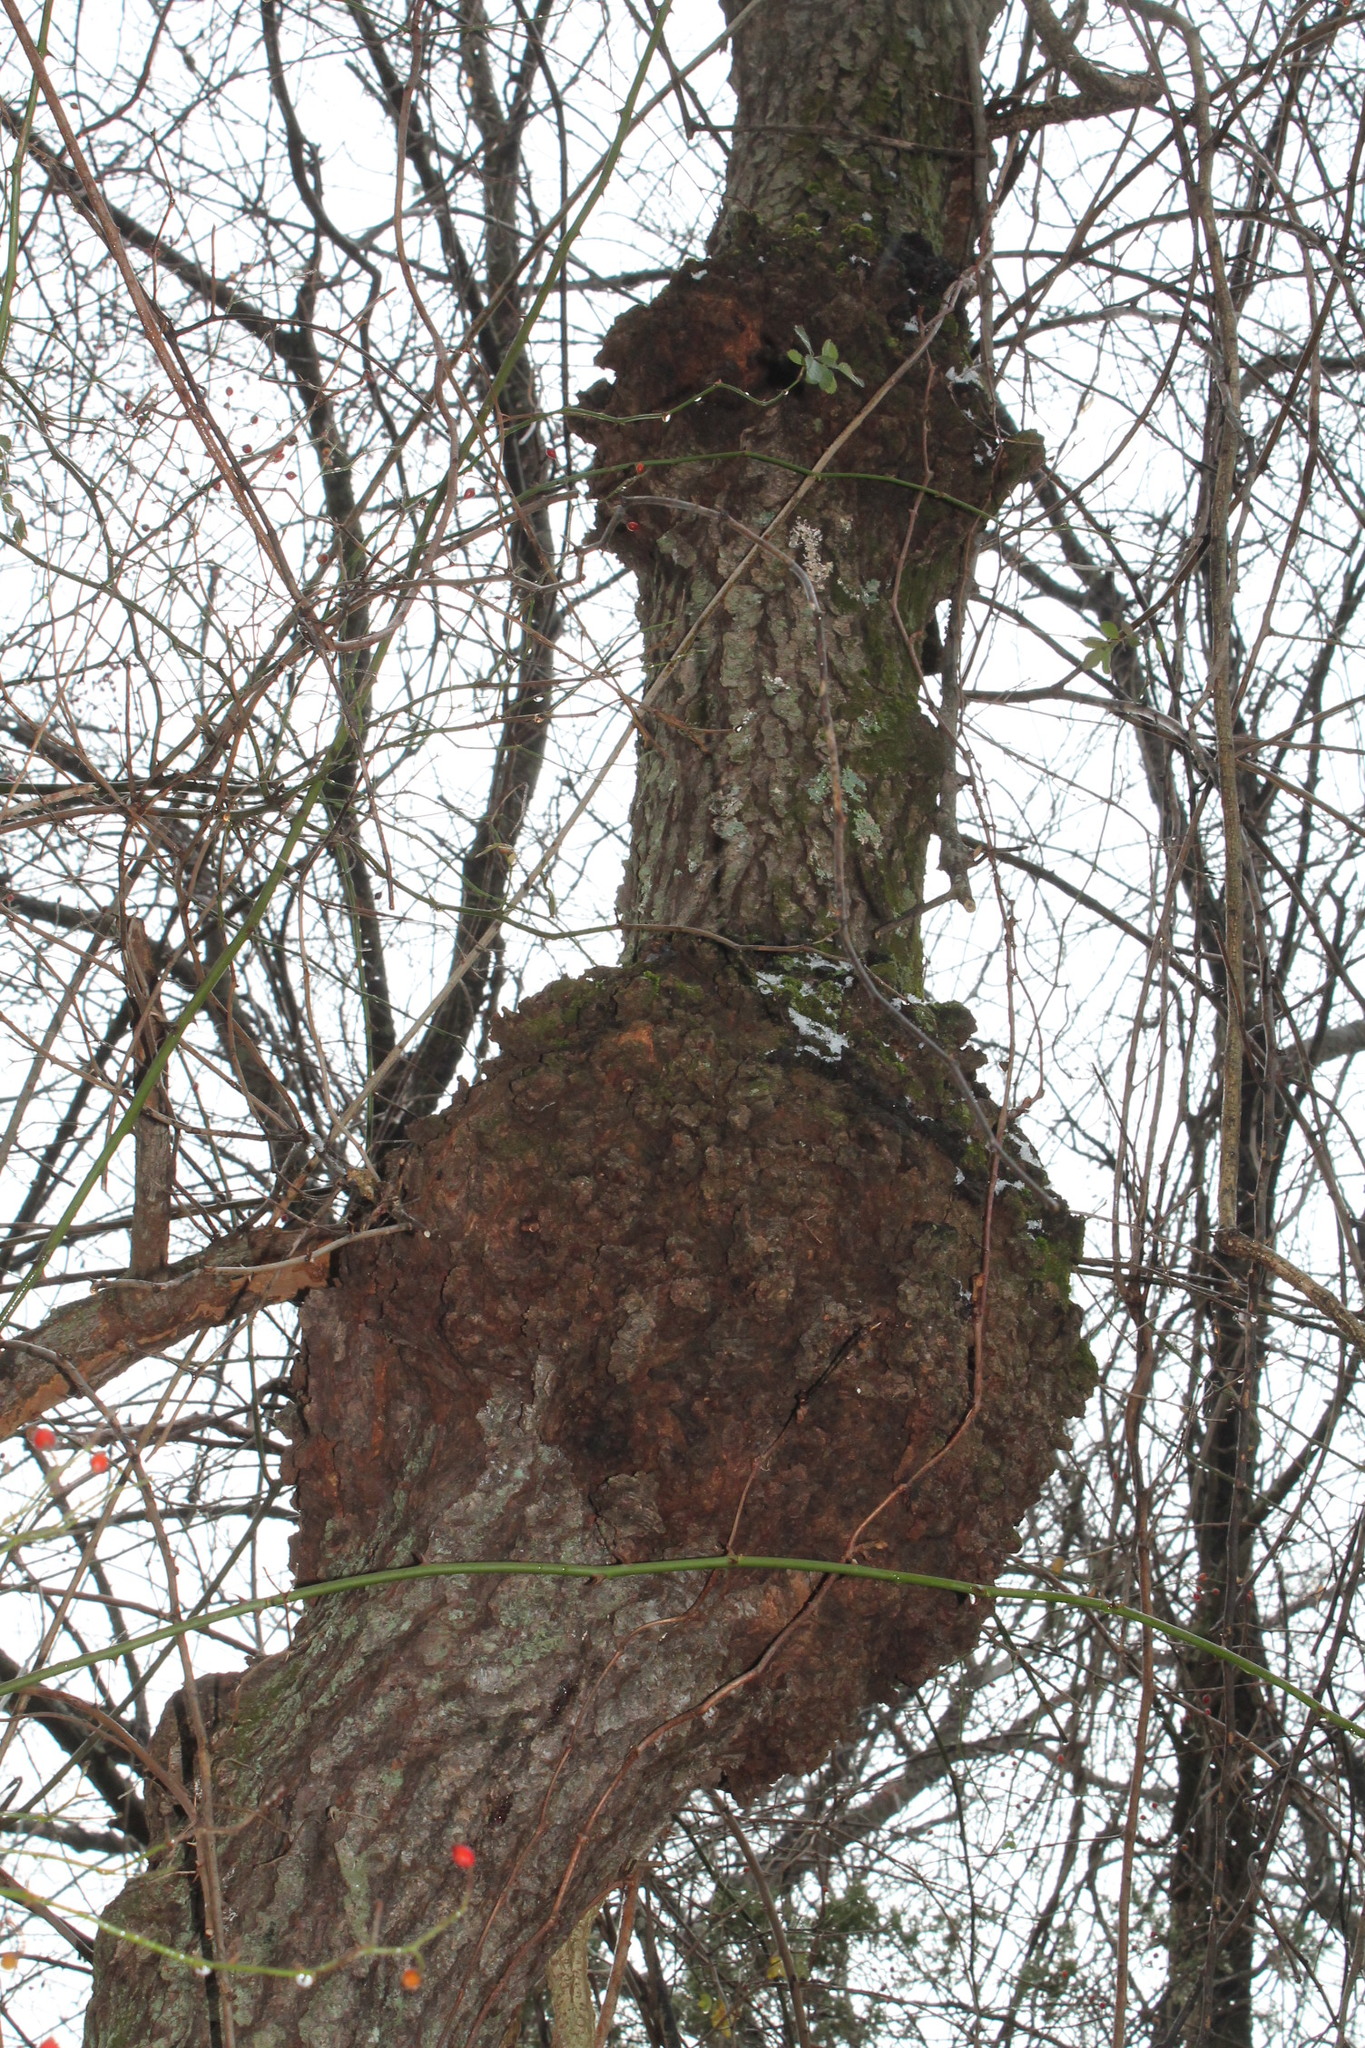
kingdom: Bacteria
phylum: Proteobacteria
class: Alphaproteobacteria
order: Rhizobiales
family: Rhizobiaceae
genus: Rhizobium
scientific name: Rhizobium Agrobacterium radiobacter
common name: Bacterial crown gall
